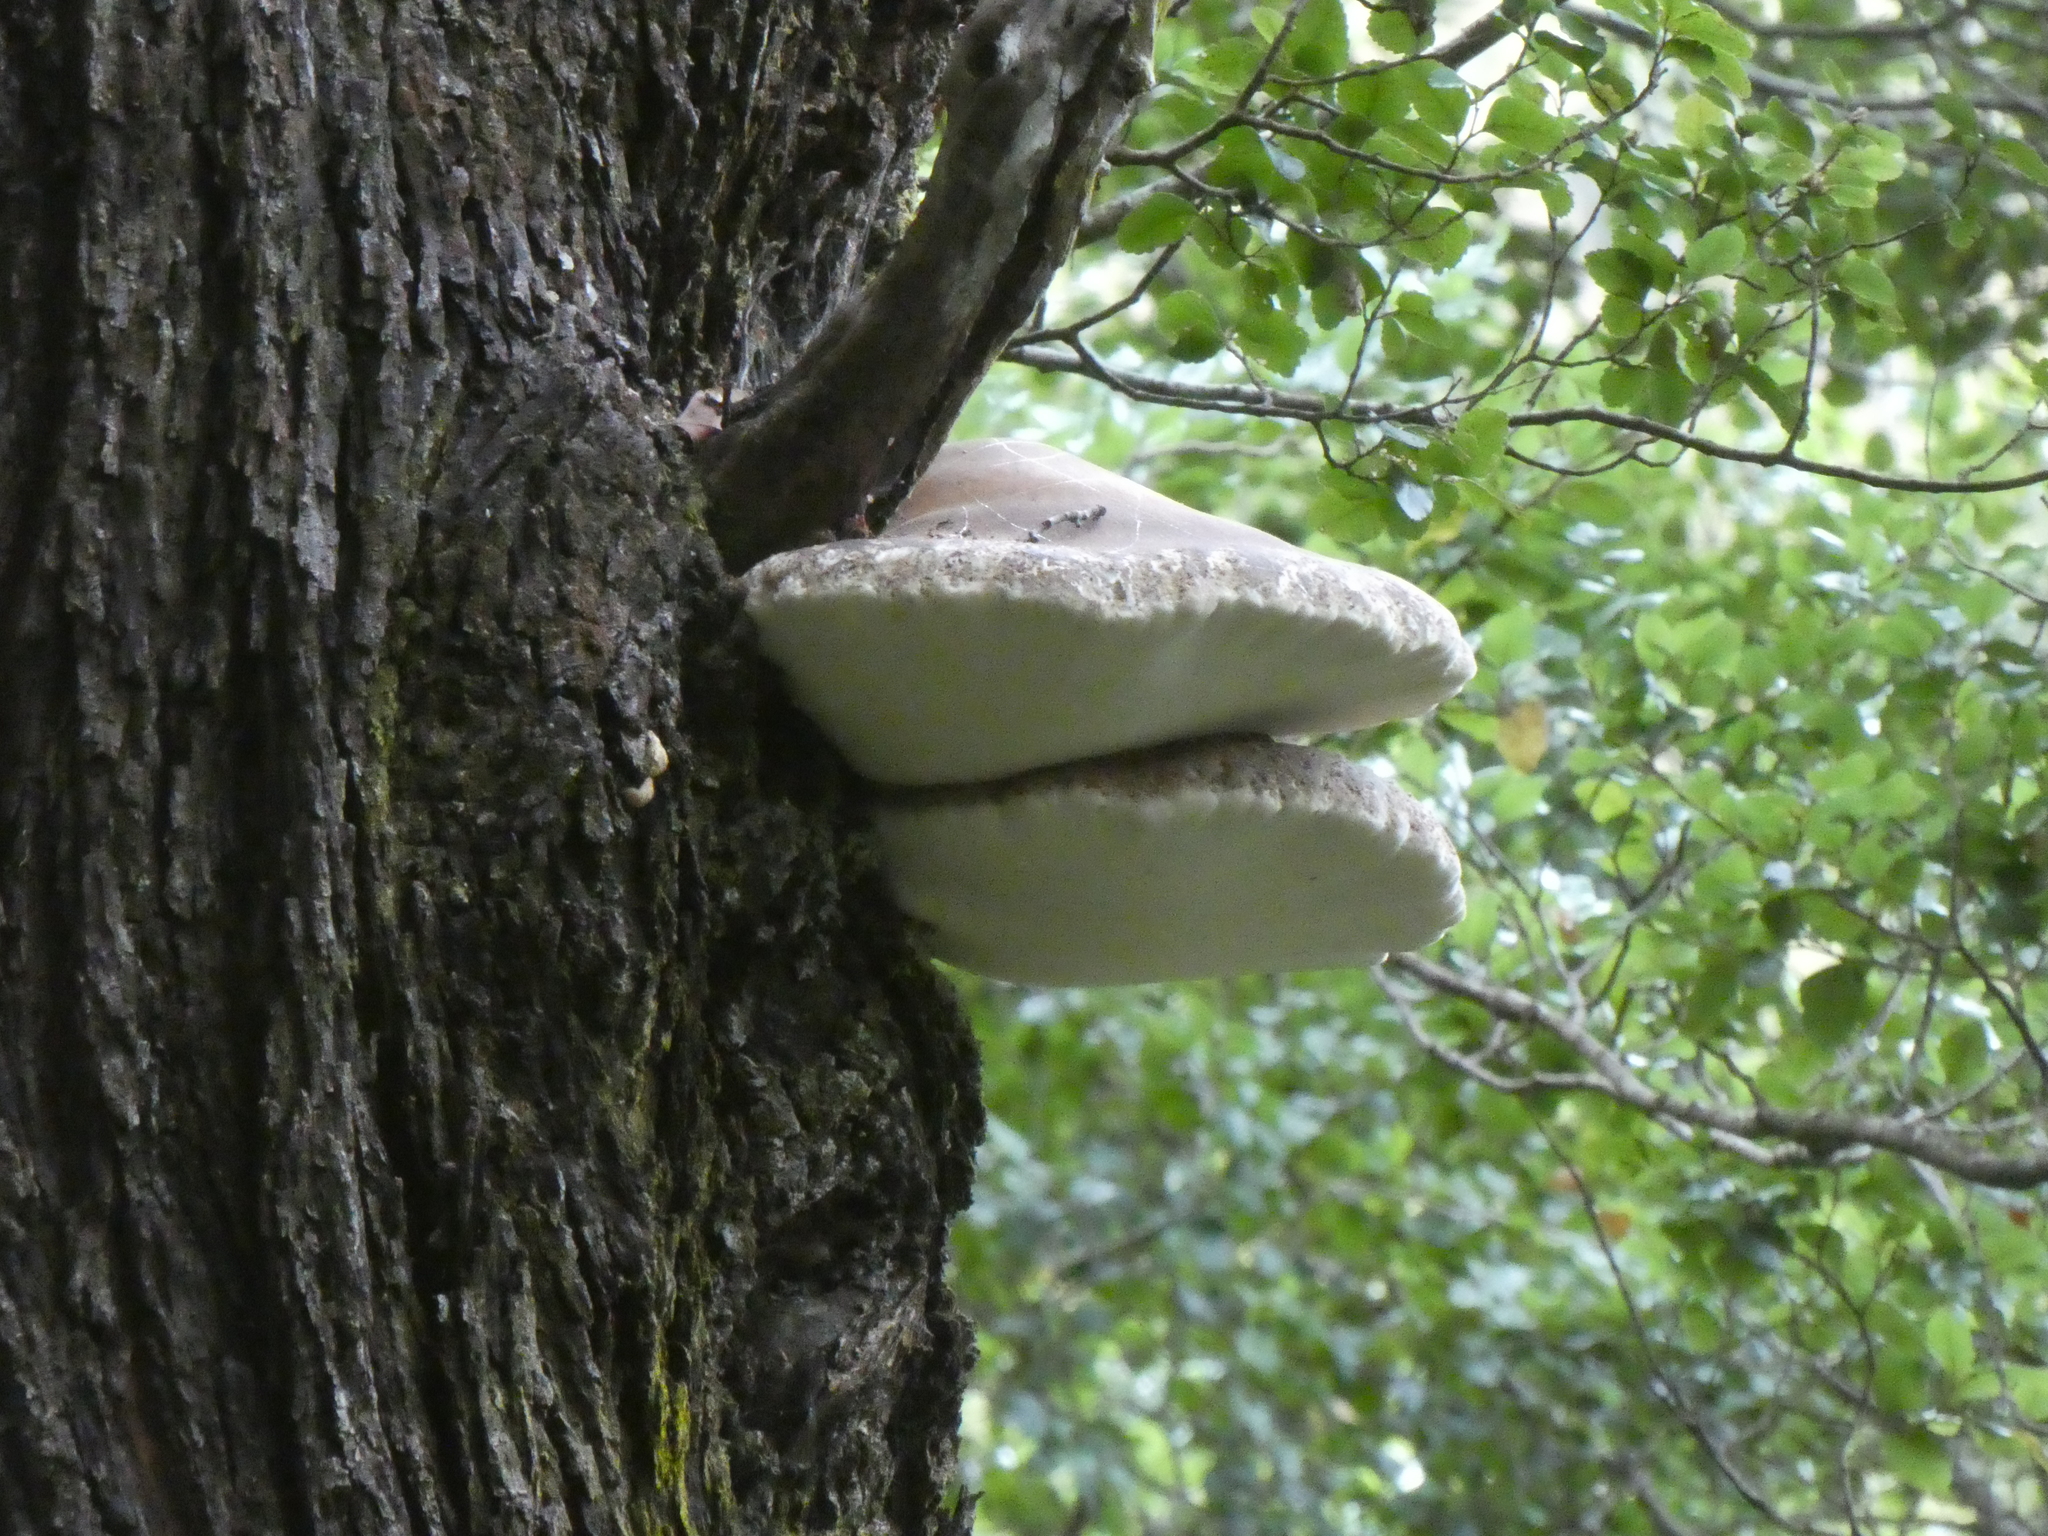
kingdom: Fungi
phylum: Basidiomycota
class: Agaricomycetes
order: Polyporales
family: Laetiporaceae
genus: Laetiporus
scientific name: Laetiporus portentosus
